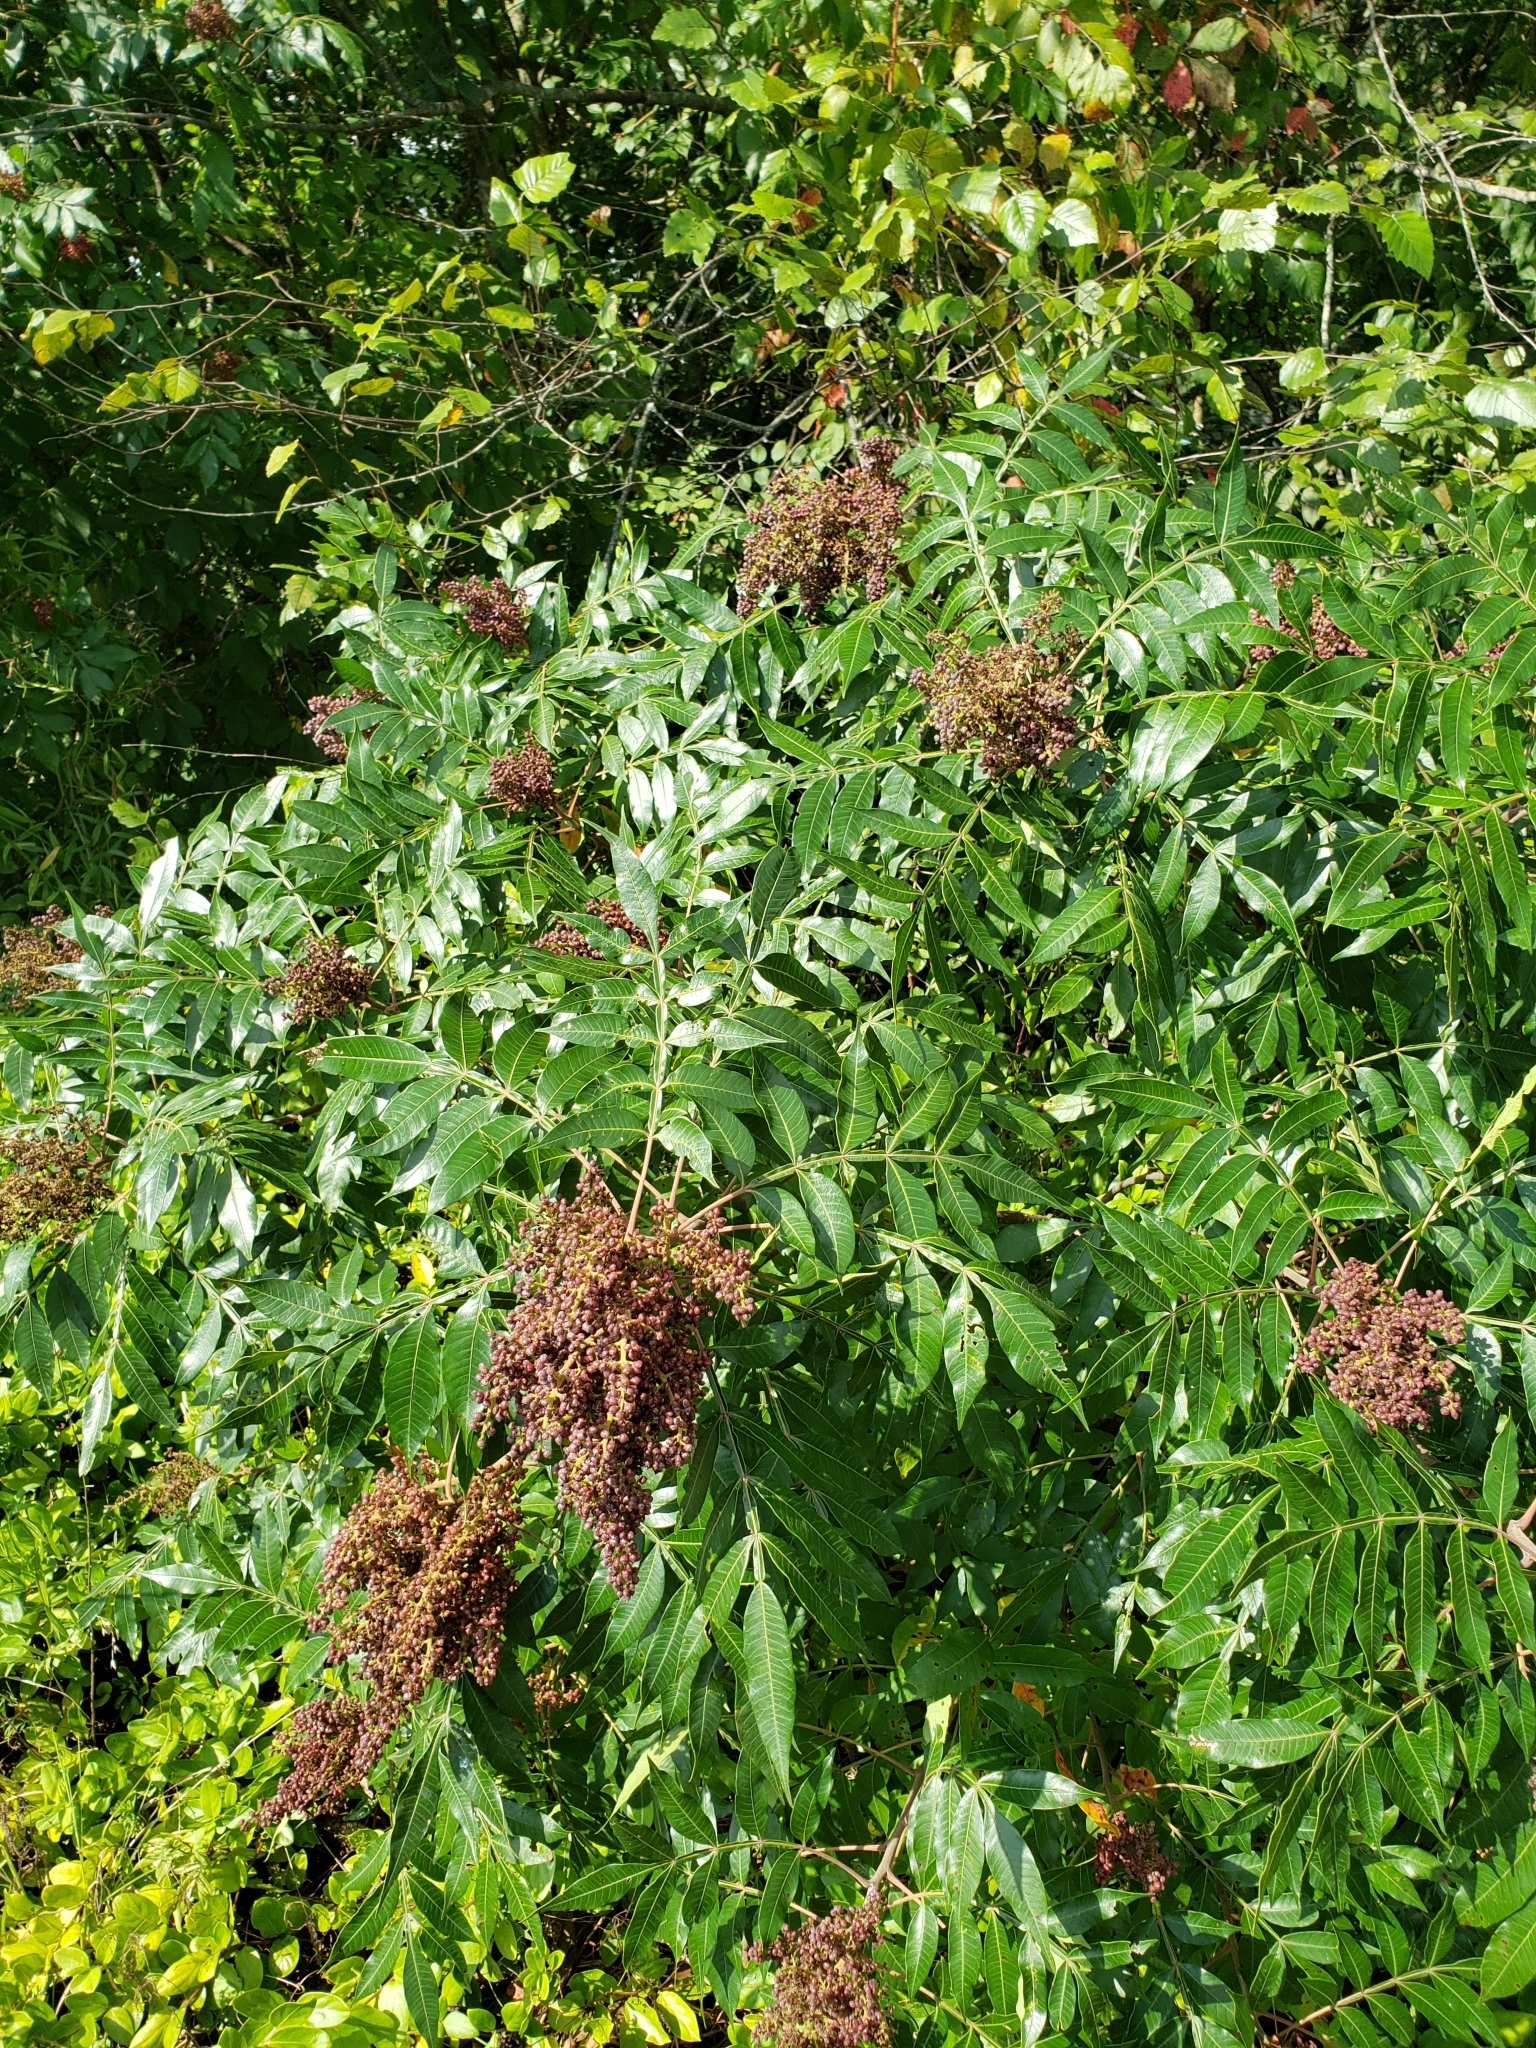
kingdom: Plantae
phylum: Tracheophyta
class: Magnoliopsida
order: Sapindales
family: Anacardiaceae
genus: Rhus
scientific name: Rhus copallina
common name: Shining sumac
